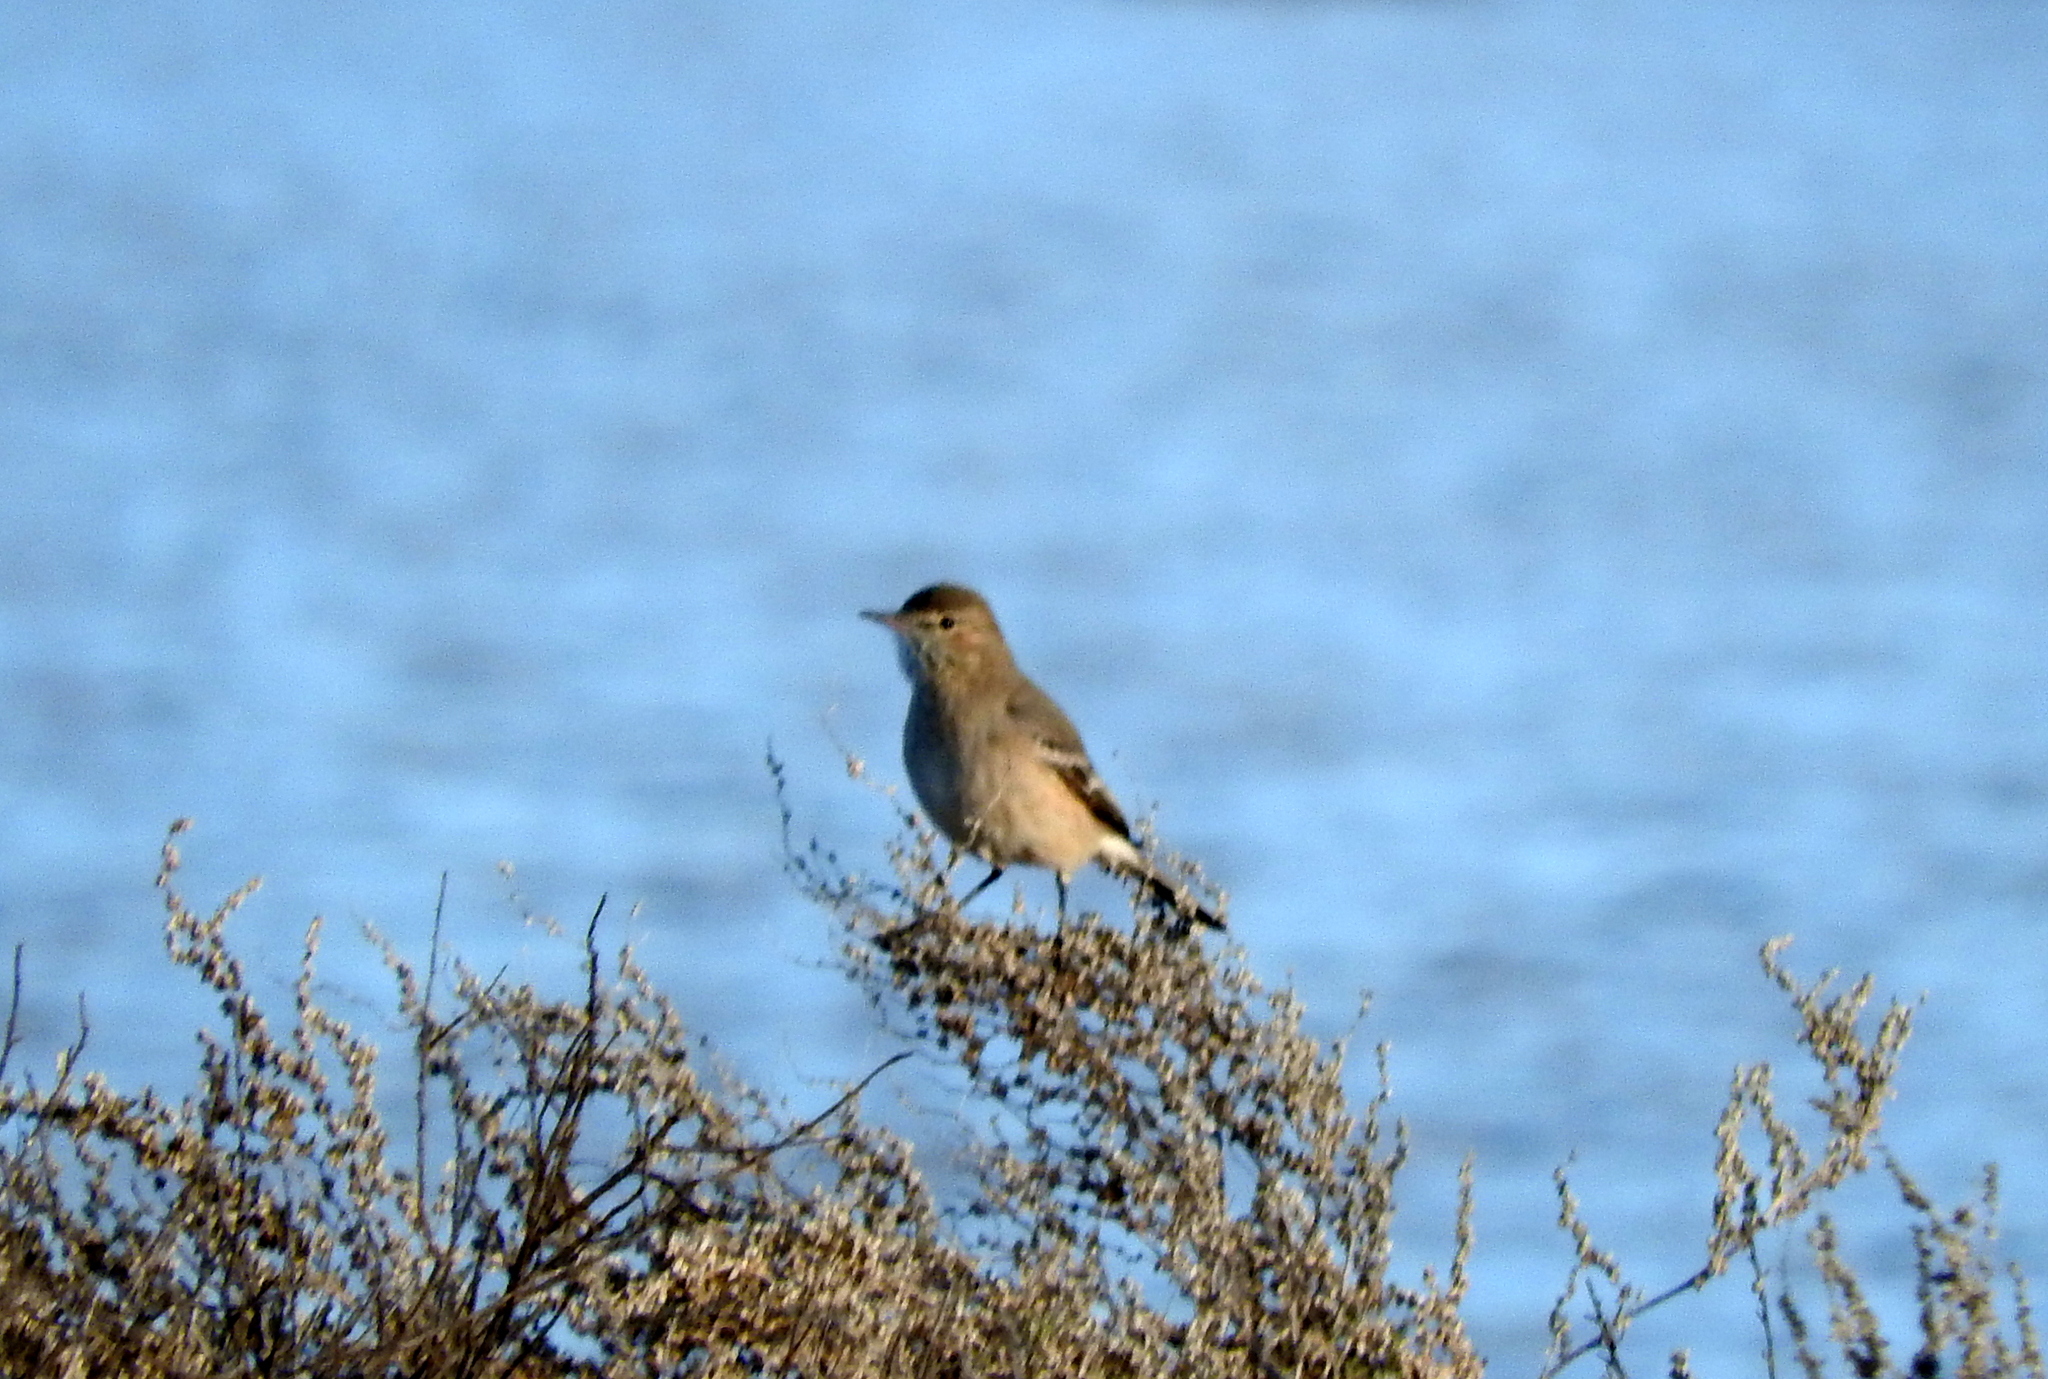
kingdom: Animalia
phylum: Chordata
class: Aves
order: Passeriformes
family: Tyrannidae
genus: Agriornis
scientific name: Agriornis murinus
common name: Lesser shrike-tyrant
